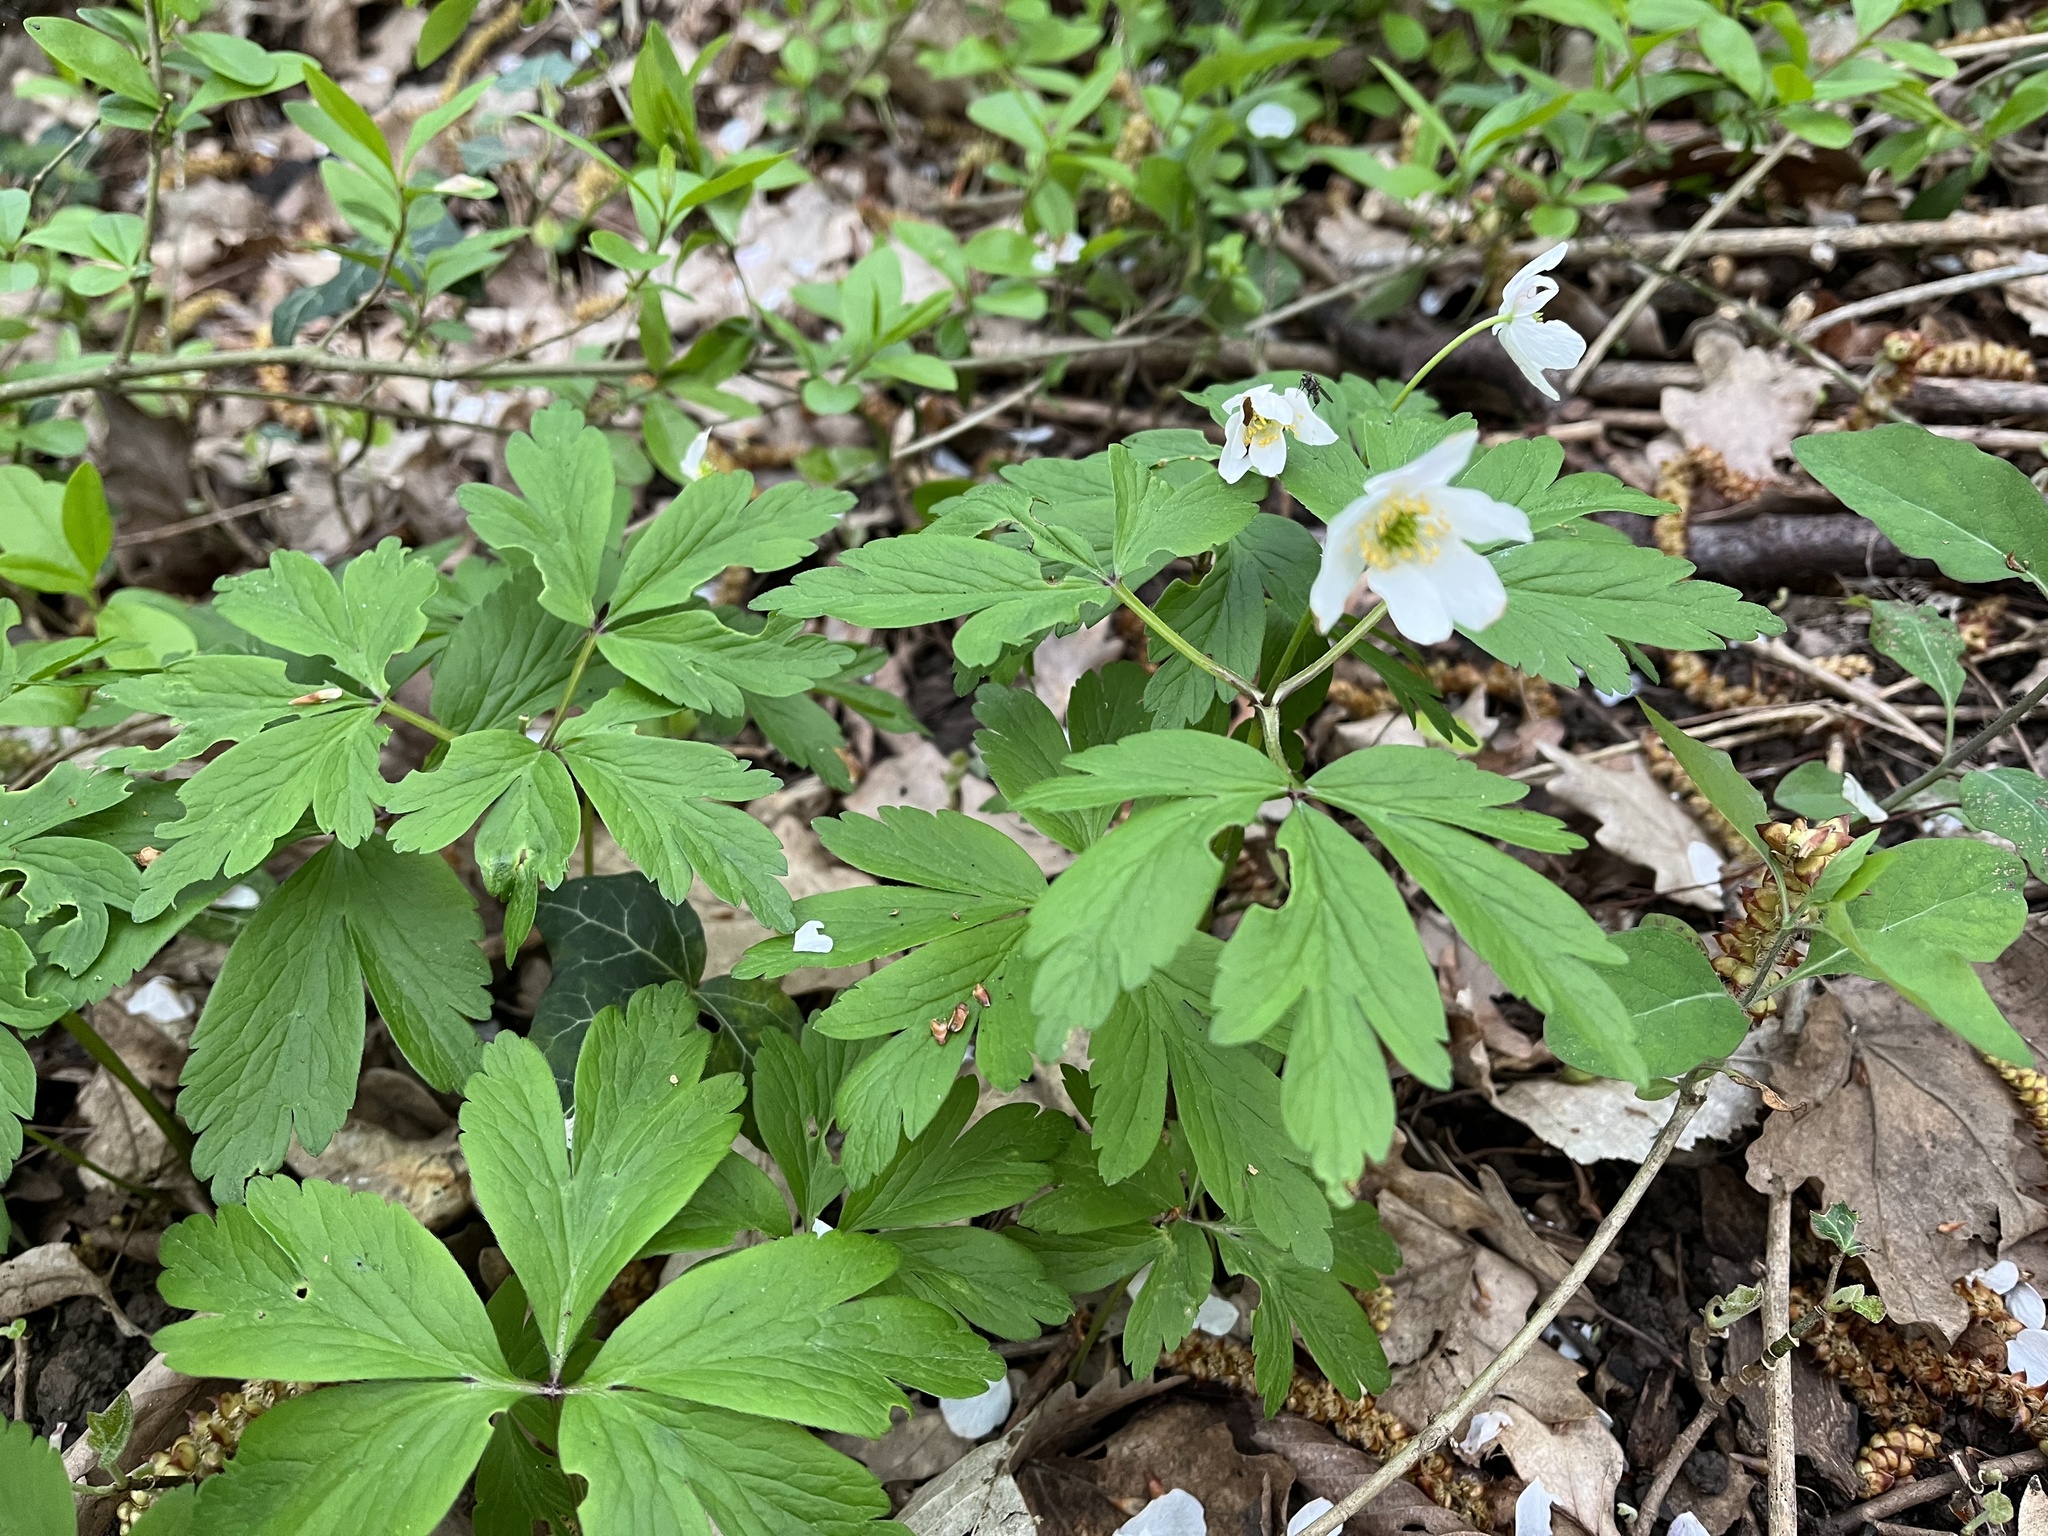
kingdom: Plantae
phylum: Tracheophyta
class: Magnoliopsida
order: Ranunculales
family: Ranunculaceae
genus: Anemone
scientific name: Anemone nemorosa
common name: Wood anemone
